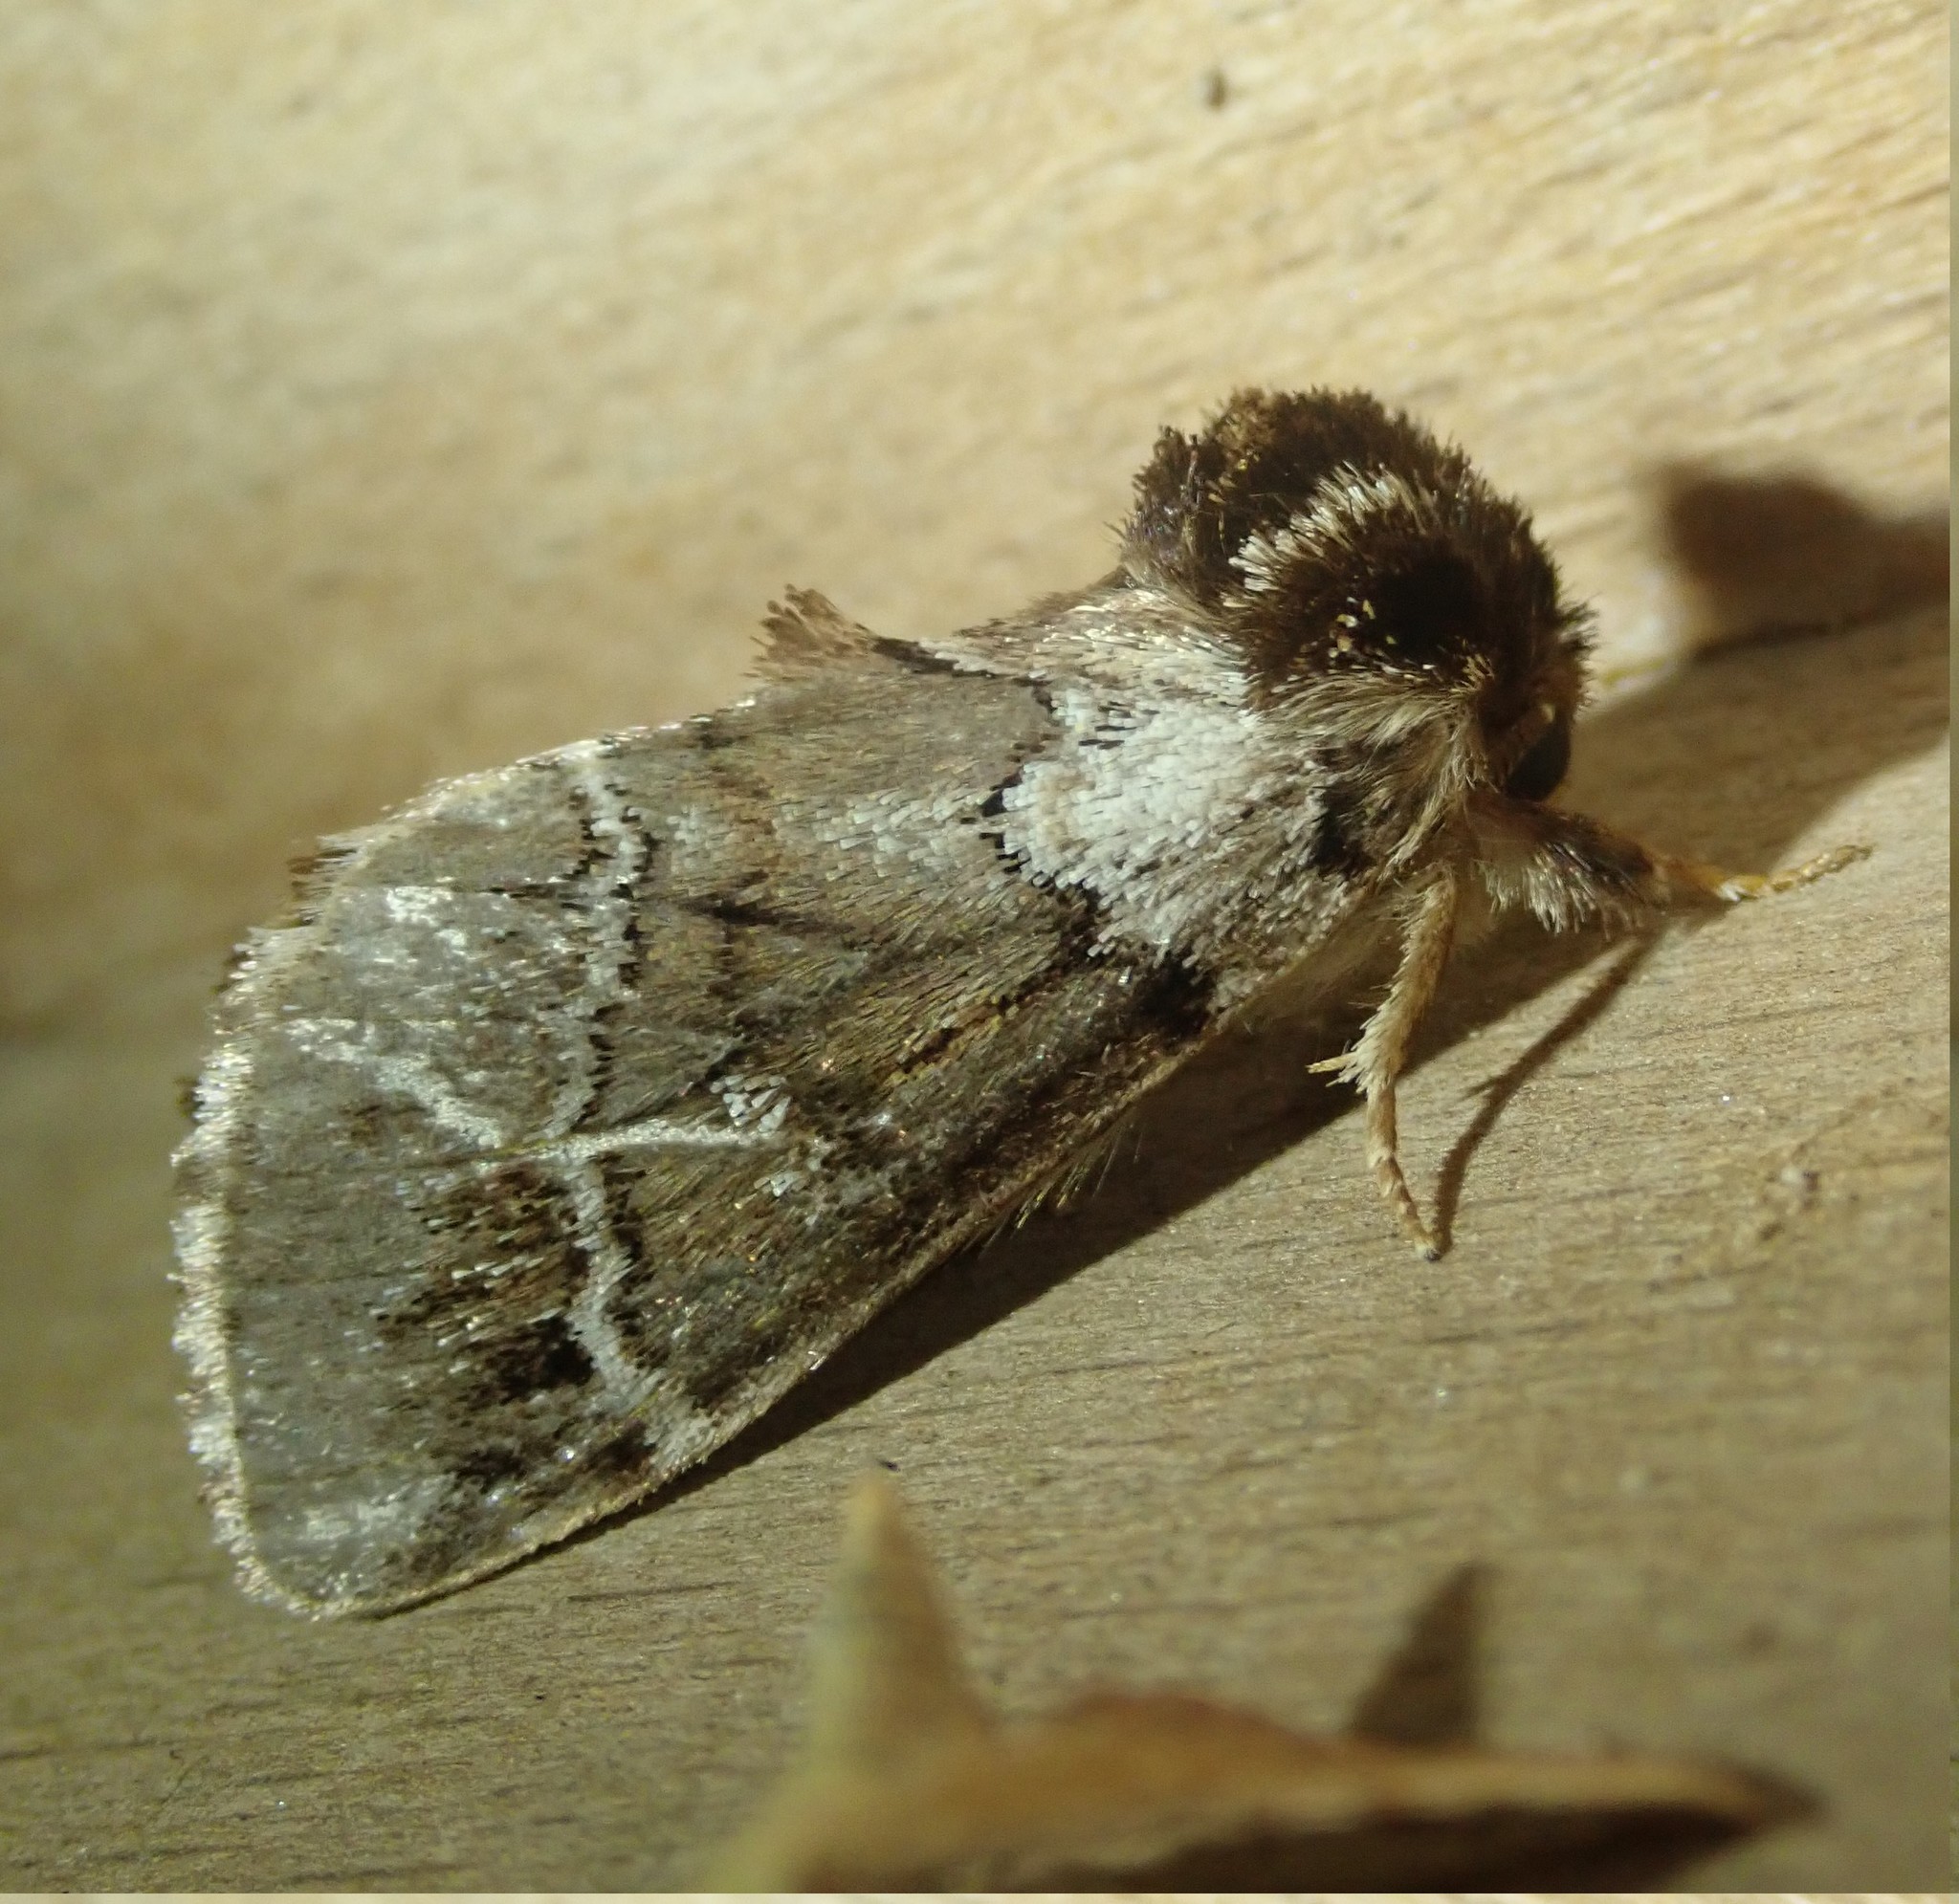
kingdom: Animalia
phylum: Arthropoda
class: Insecta
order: Lepidoptera
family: Notodontidae
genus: Drymonia
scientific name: Drymonia obliterata
